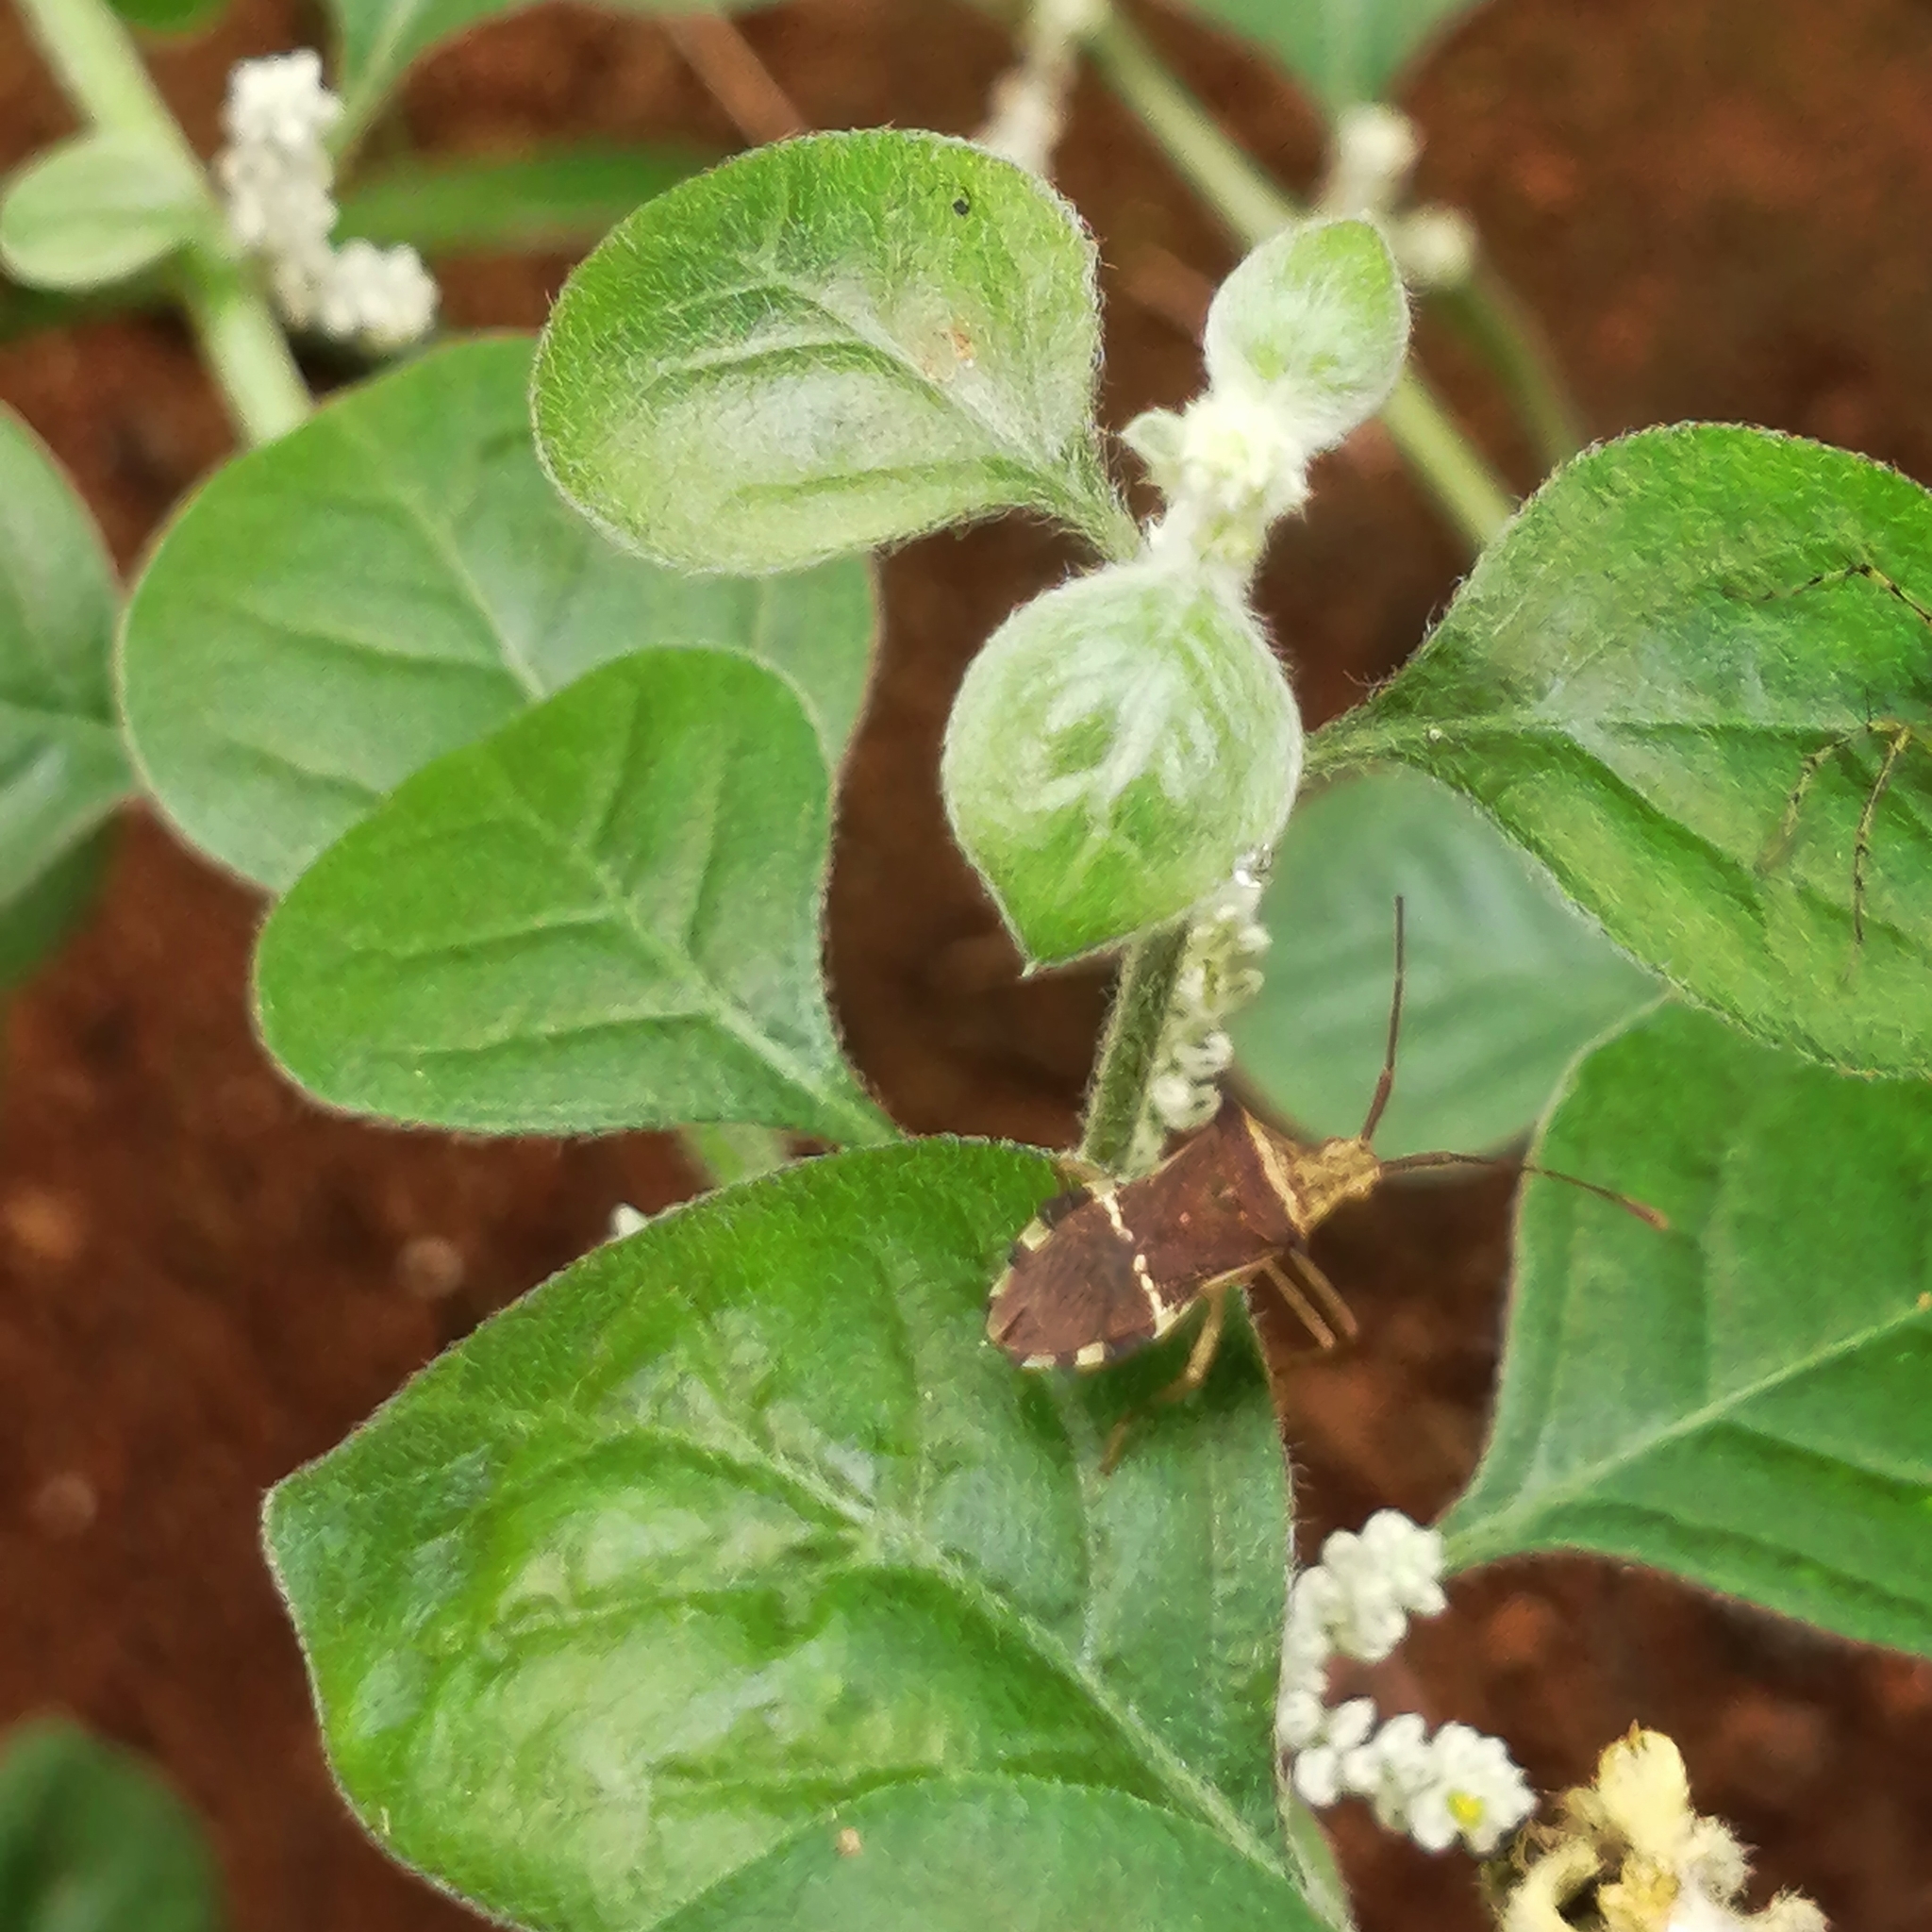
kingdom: Animalia
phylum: Arthropoda
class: Insecta
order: Hemiptera
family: Coreidae
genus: Cletomorpha
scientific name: Cletomorpha benita
